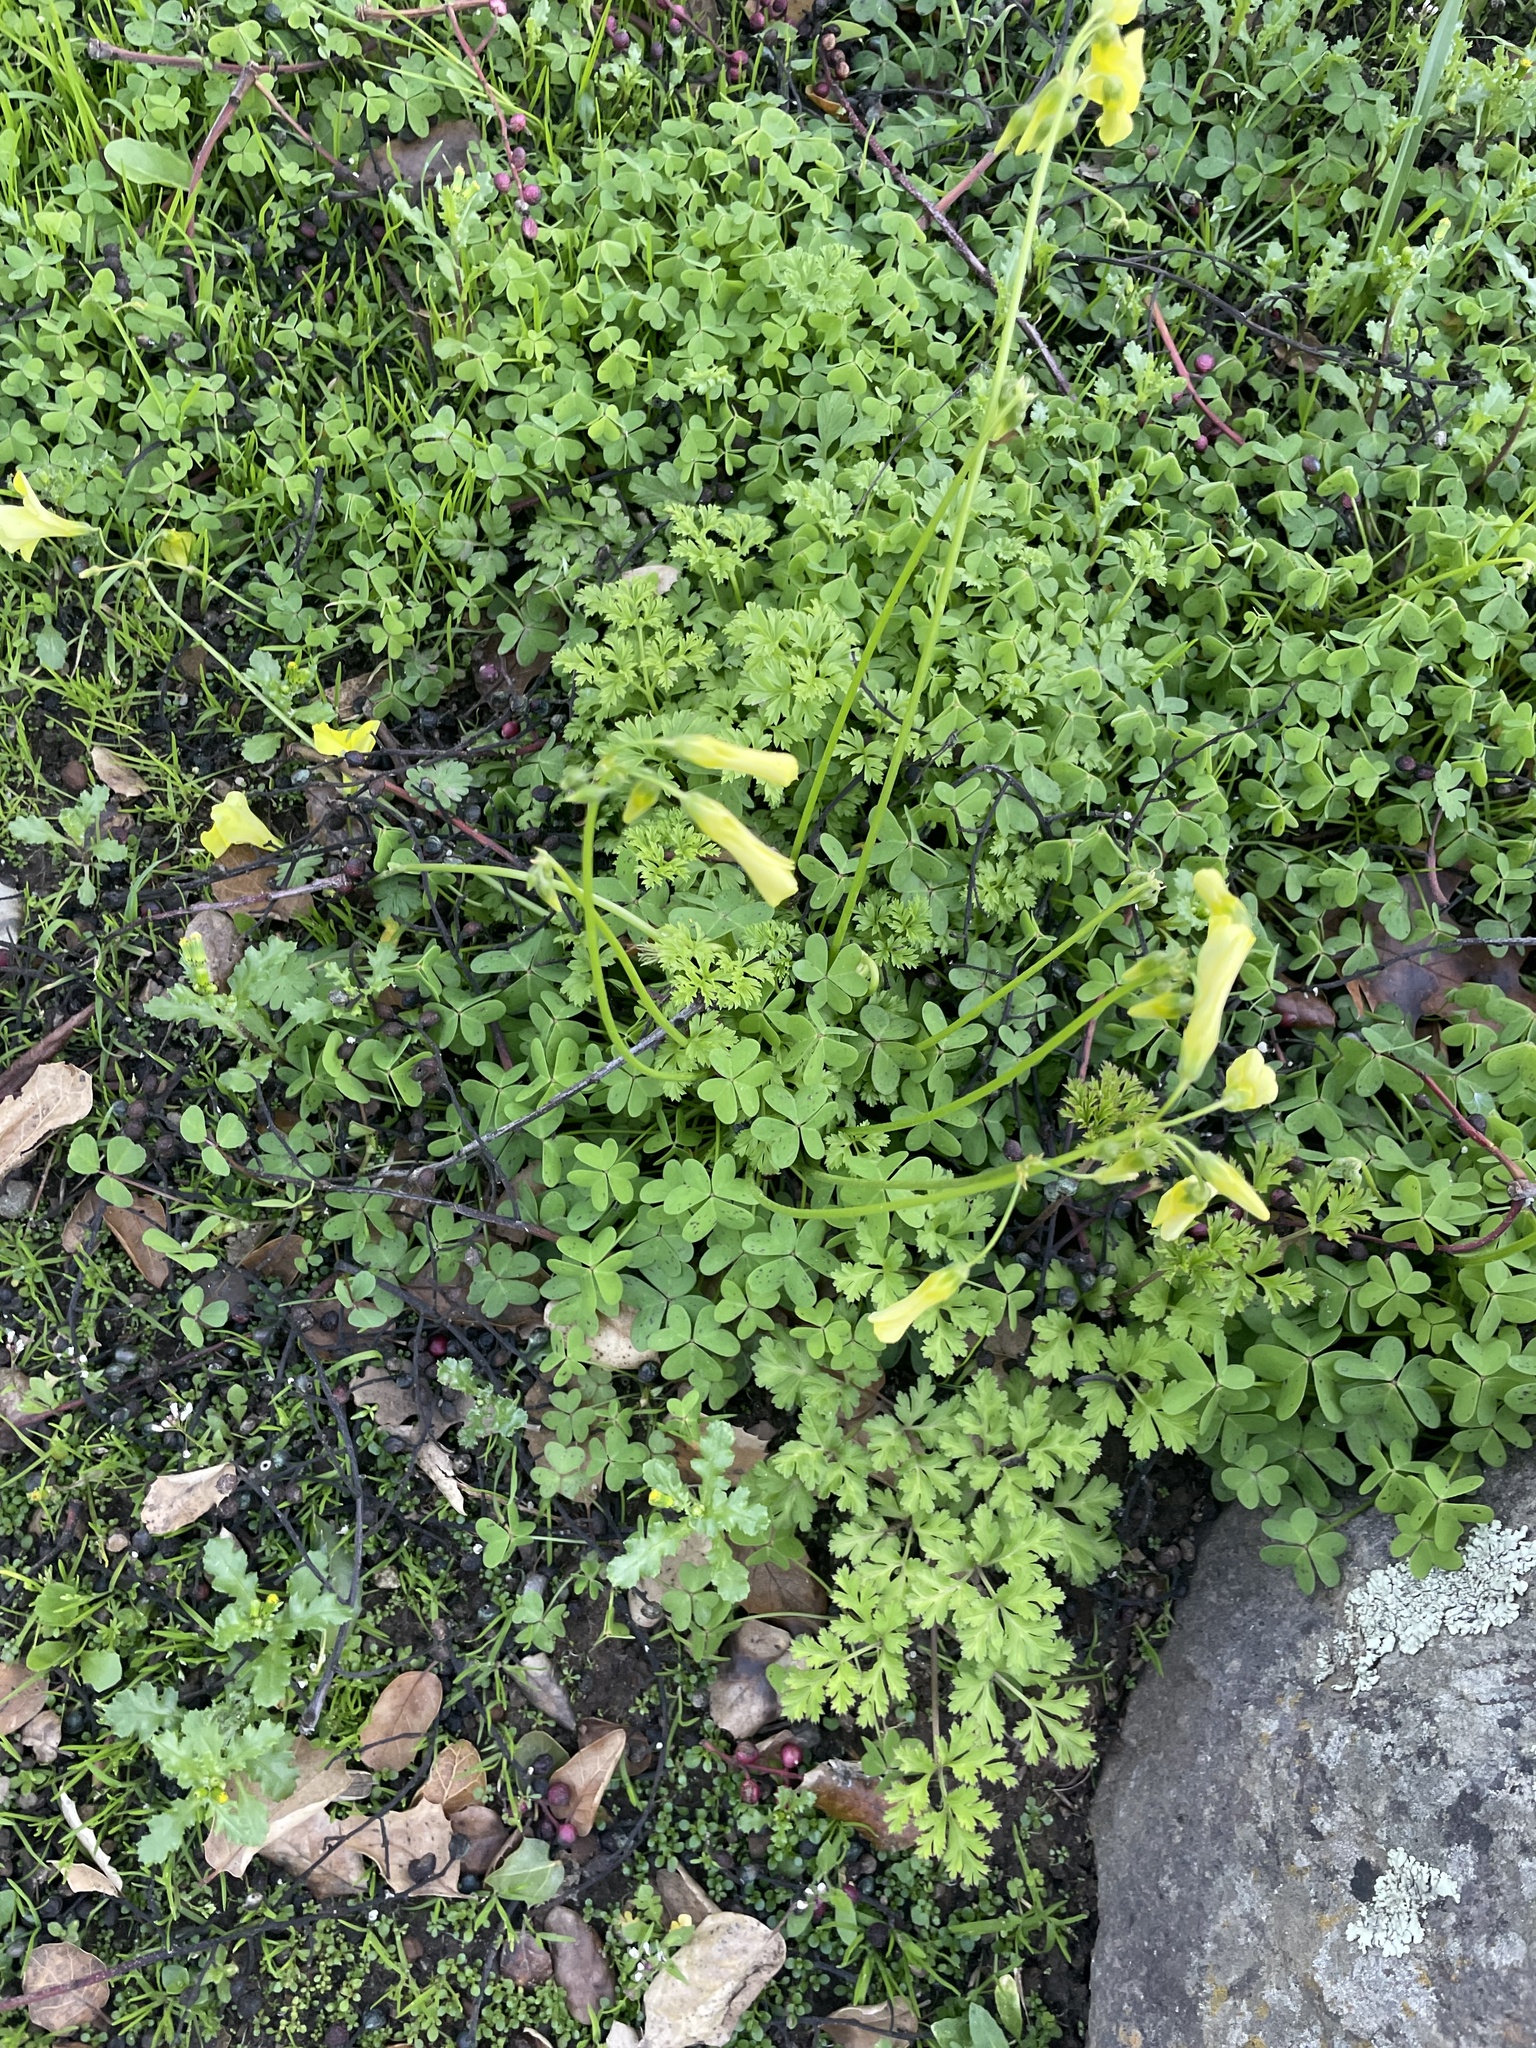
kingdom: Plantae
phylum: Tracheophyta
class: Magnoliopsida
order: Oxalidales
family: Oxalidaceae
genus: Oxalis
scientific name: Oxalis pes-caprae
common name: Bermuda-buttercup
